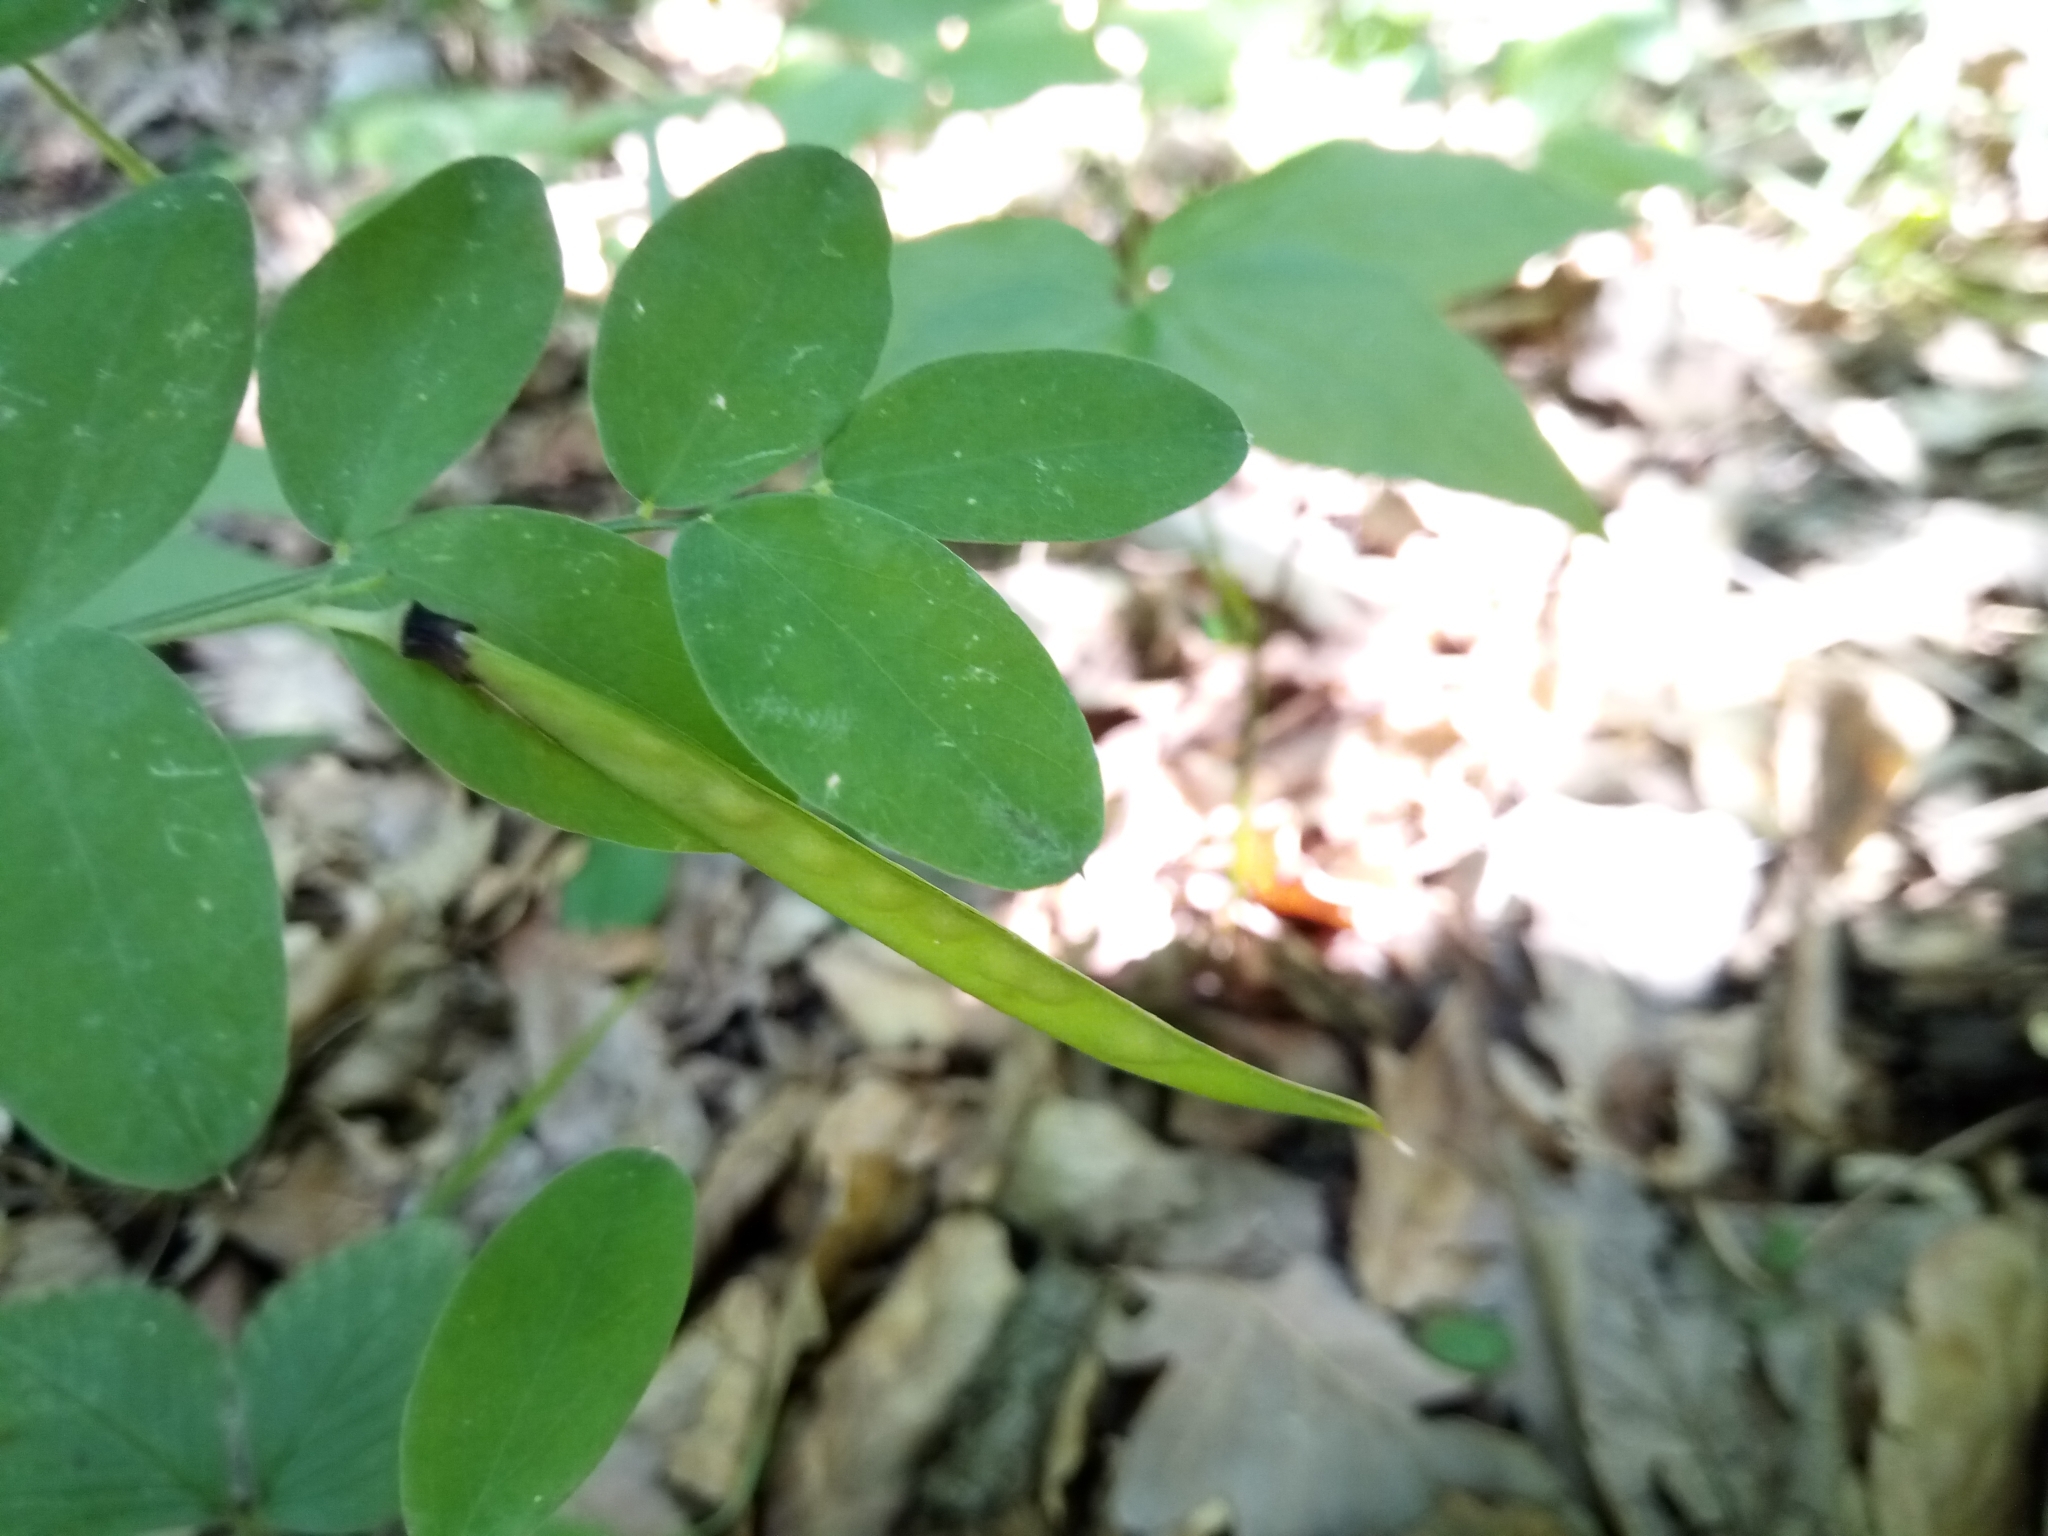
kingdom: Plantae
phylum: Tracheophyta
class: Magnoliopsida
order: Fabales
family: Fabaceae
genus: Lathyrus
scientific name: Lathyrus niger
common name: Black pea
